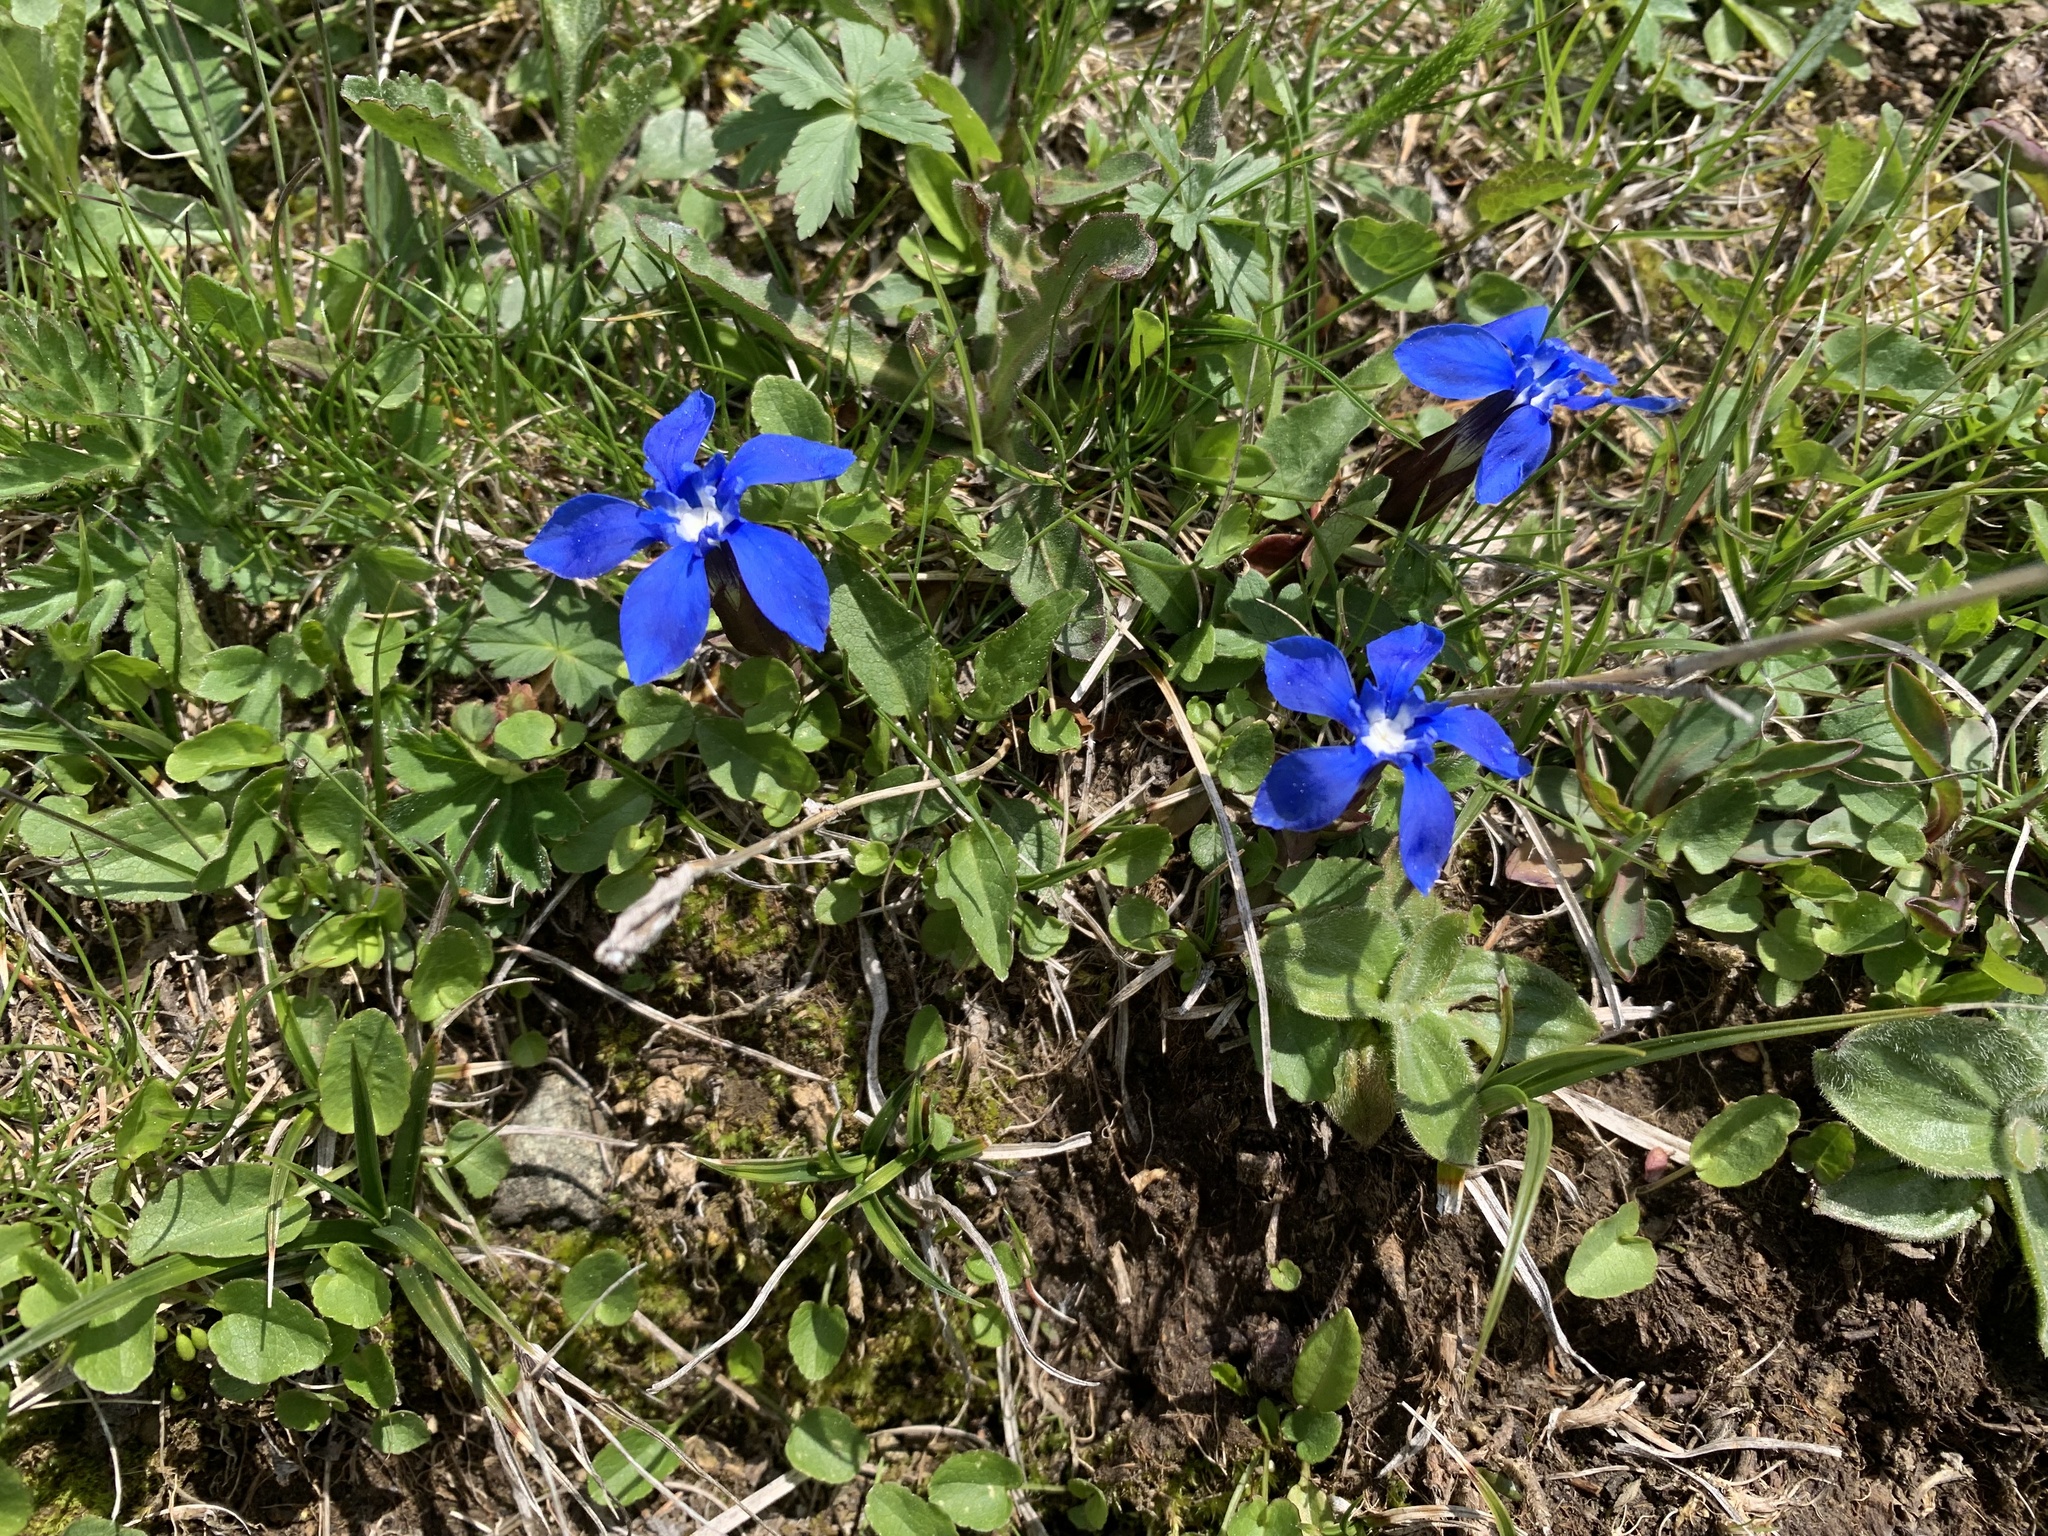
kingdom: Plantae
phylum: Tracheophyta
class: Magnoliopsida
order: Gentianales
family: Gentianaceae
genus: Gentiana
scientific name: Gentiana verna
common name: Spring gentian
